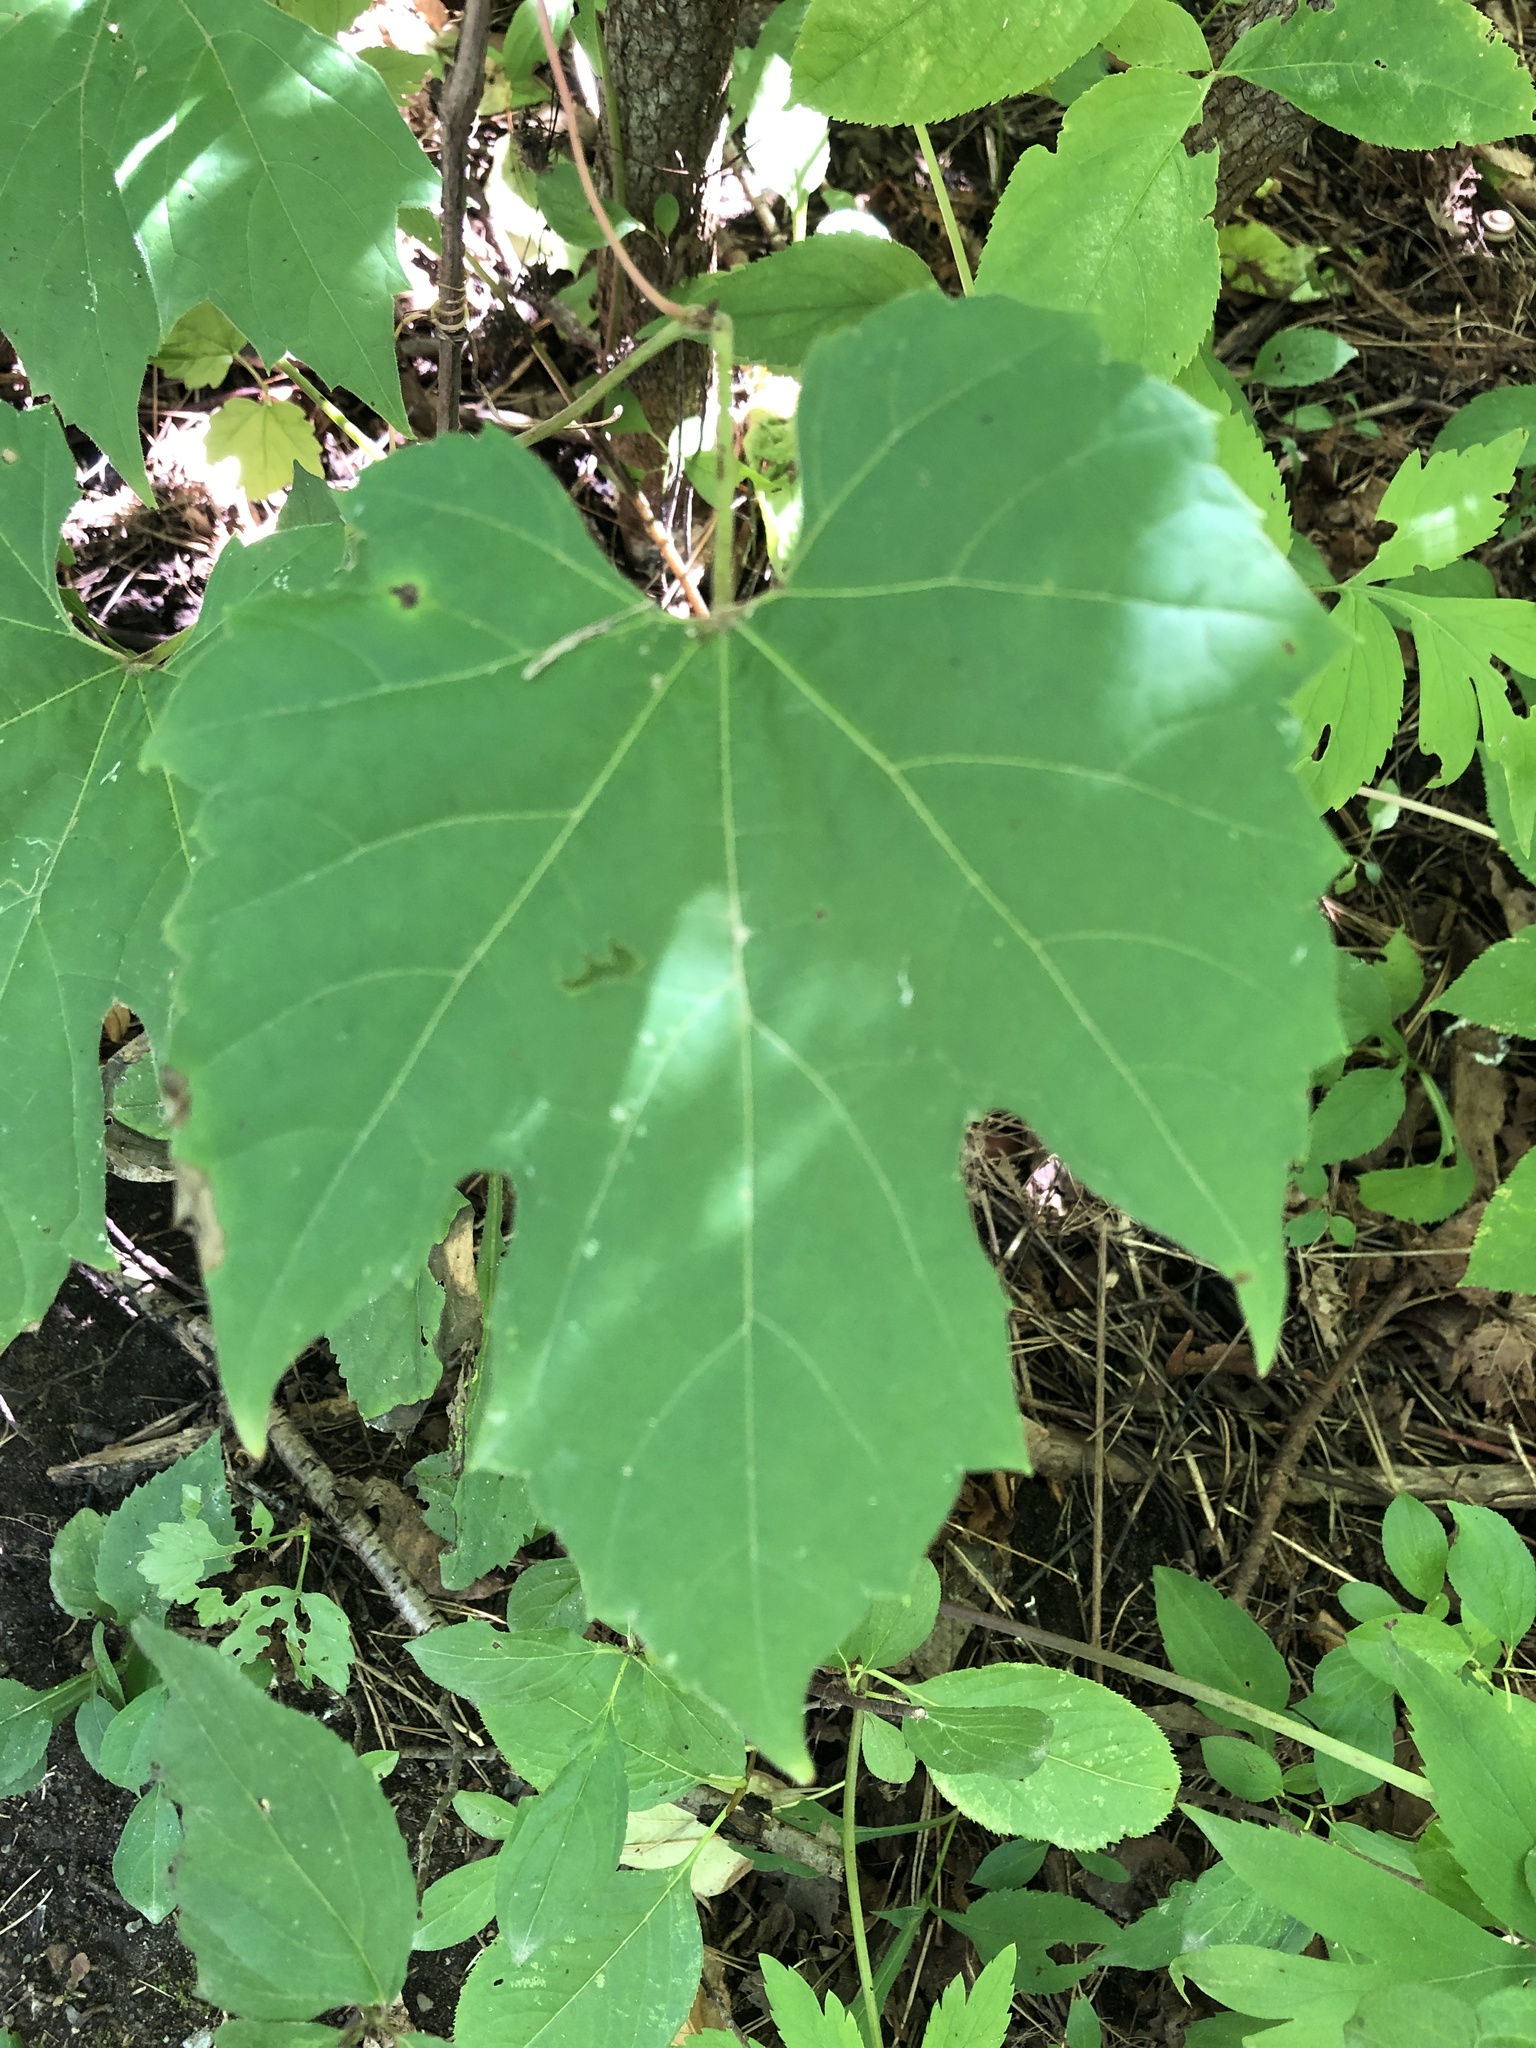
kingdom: Plantae
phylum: Tracheophyta
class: Magnoliopsida
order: Vitales
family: Vitaceae
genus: Vitis
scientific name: Vitis riparia
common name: Frost grape
